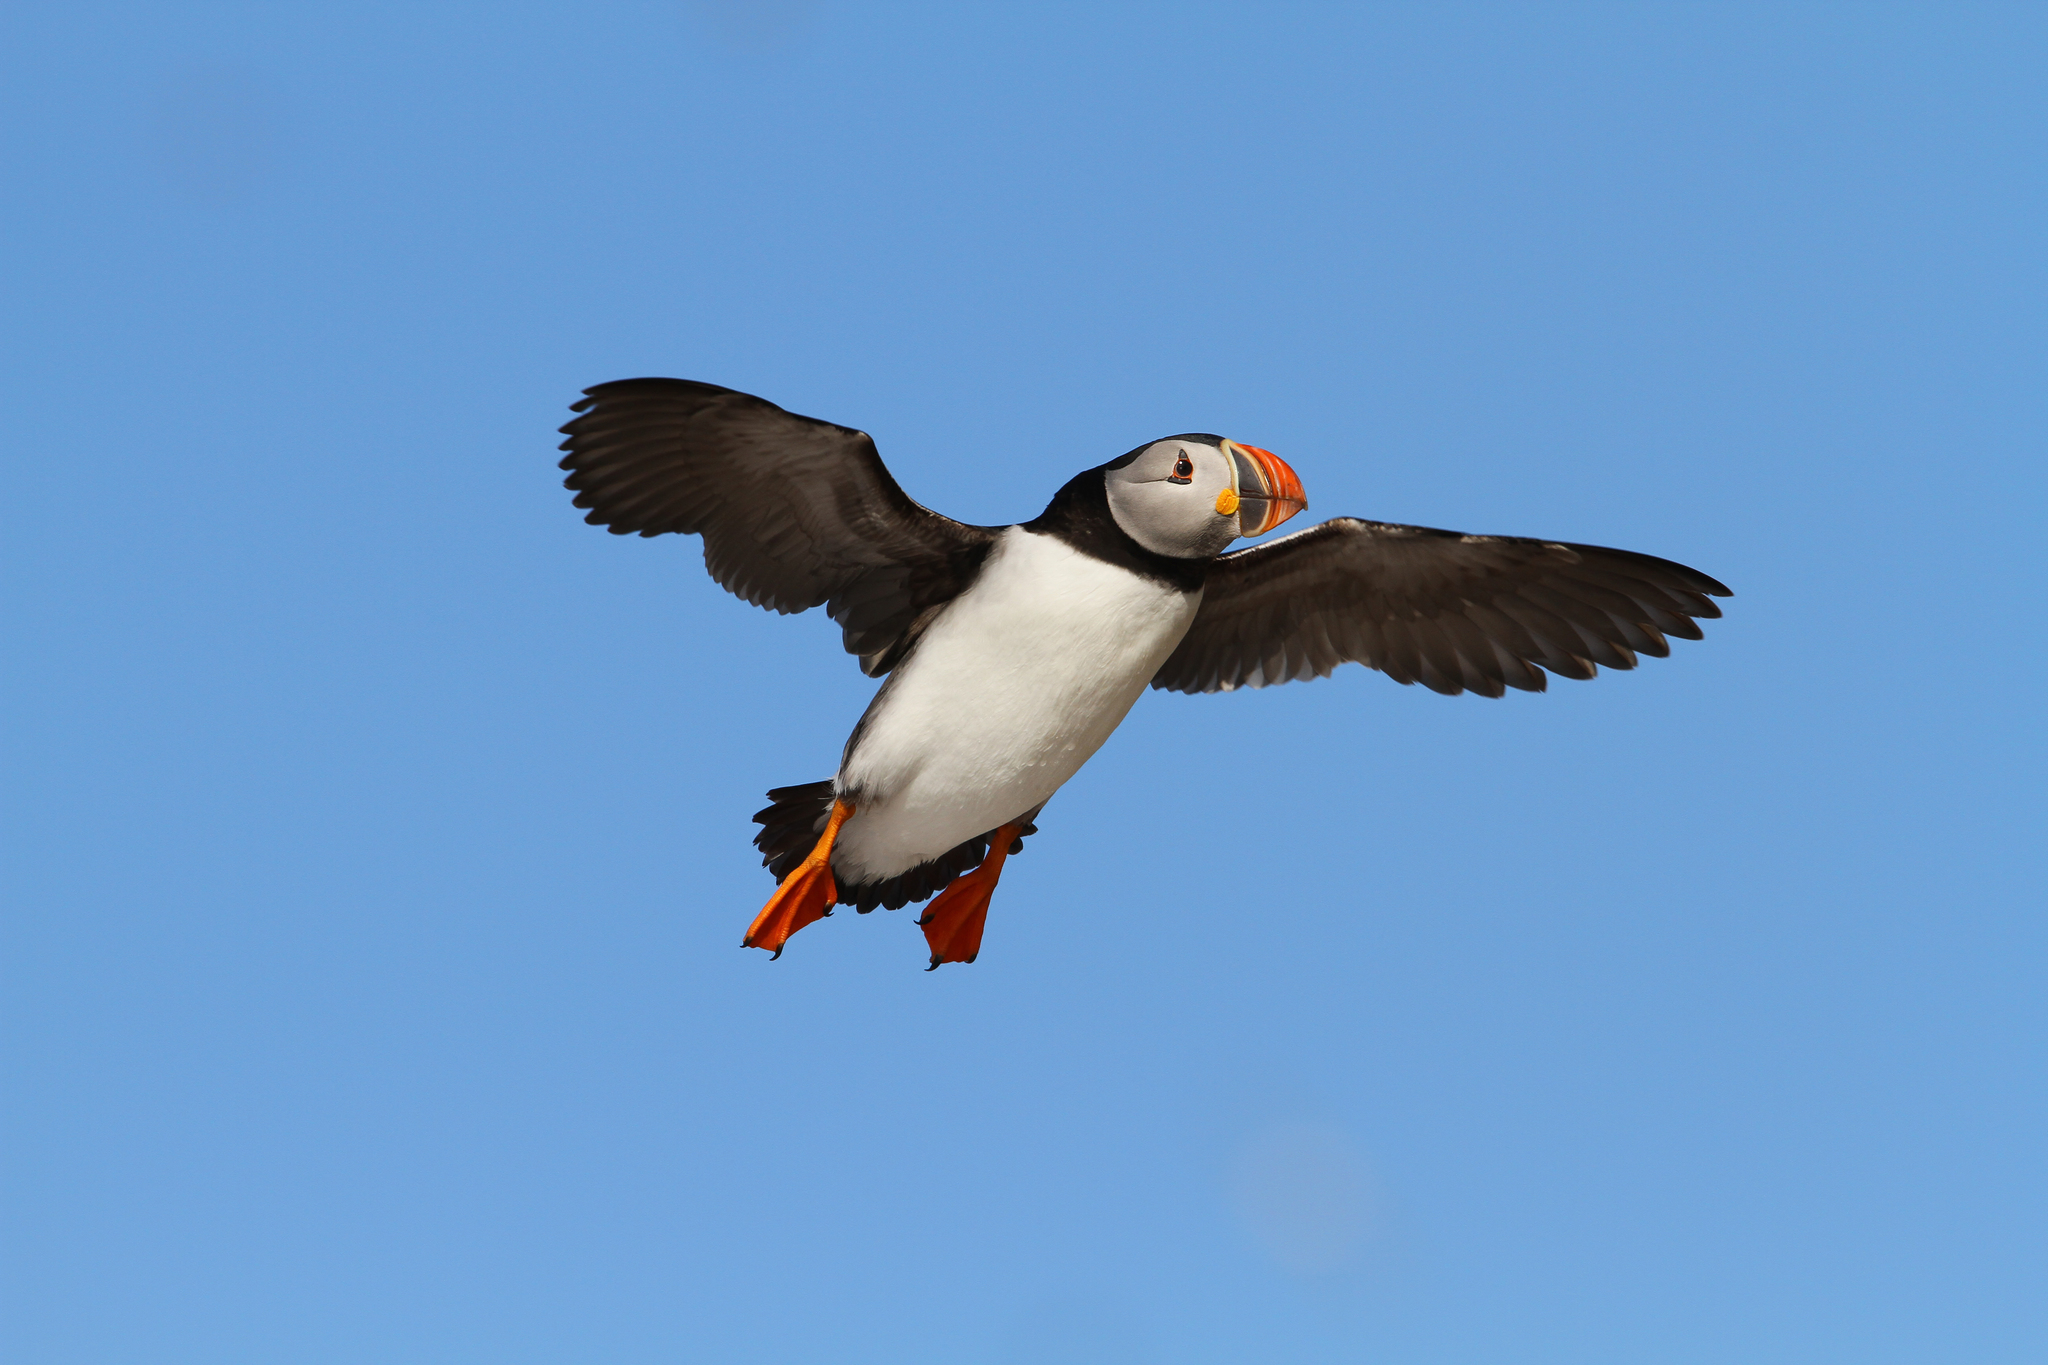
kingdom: Animalia
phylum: Chordata
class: Aves
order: Charadriiformes
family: Alcidae
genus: Fratercula
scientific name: Fratercula arctica
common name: Atlantic puffin
